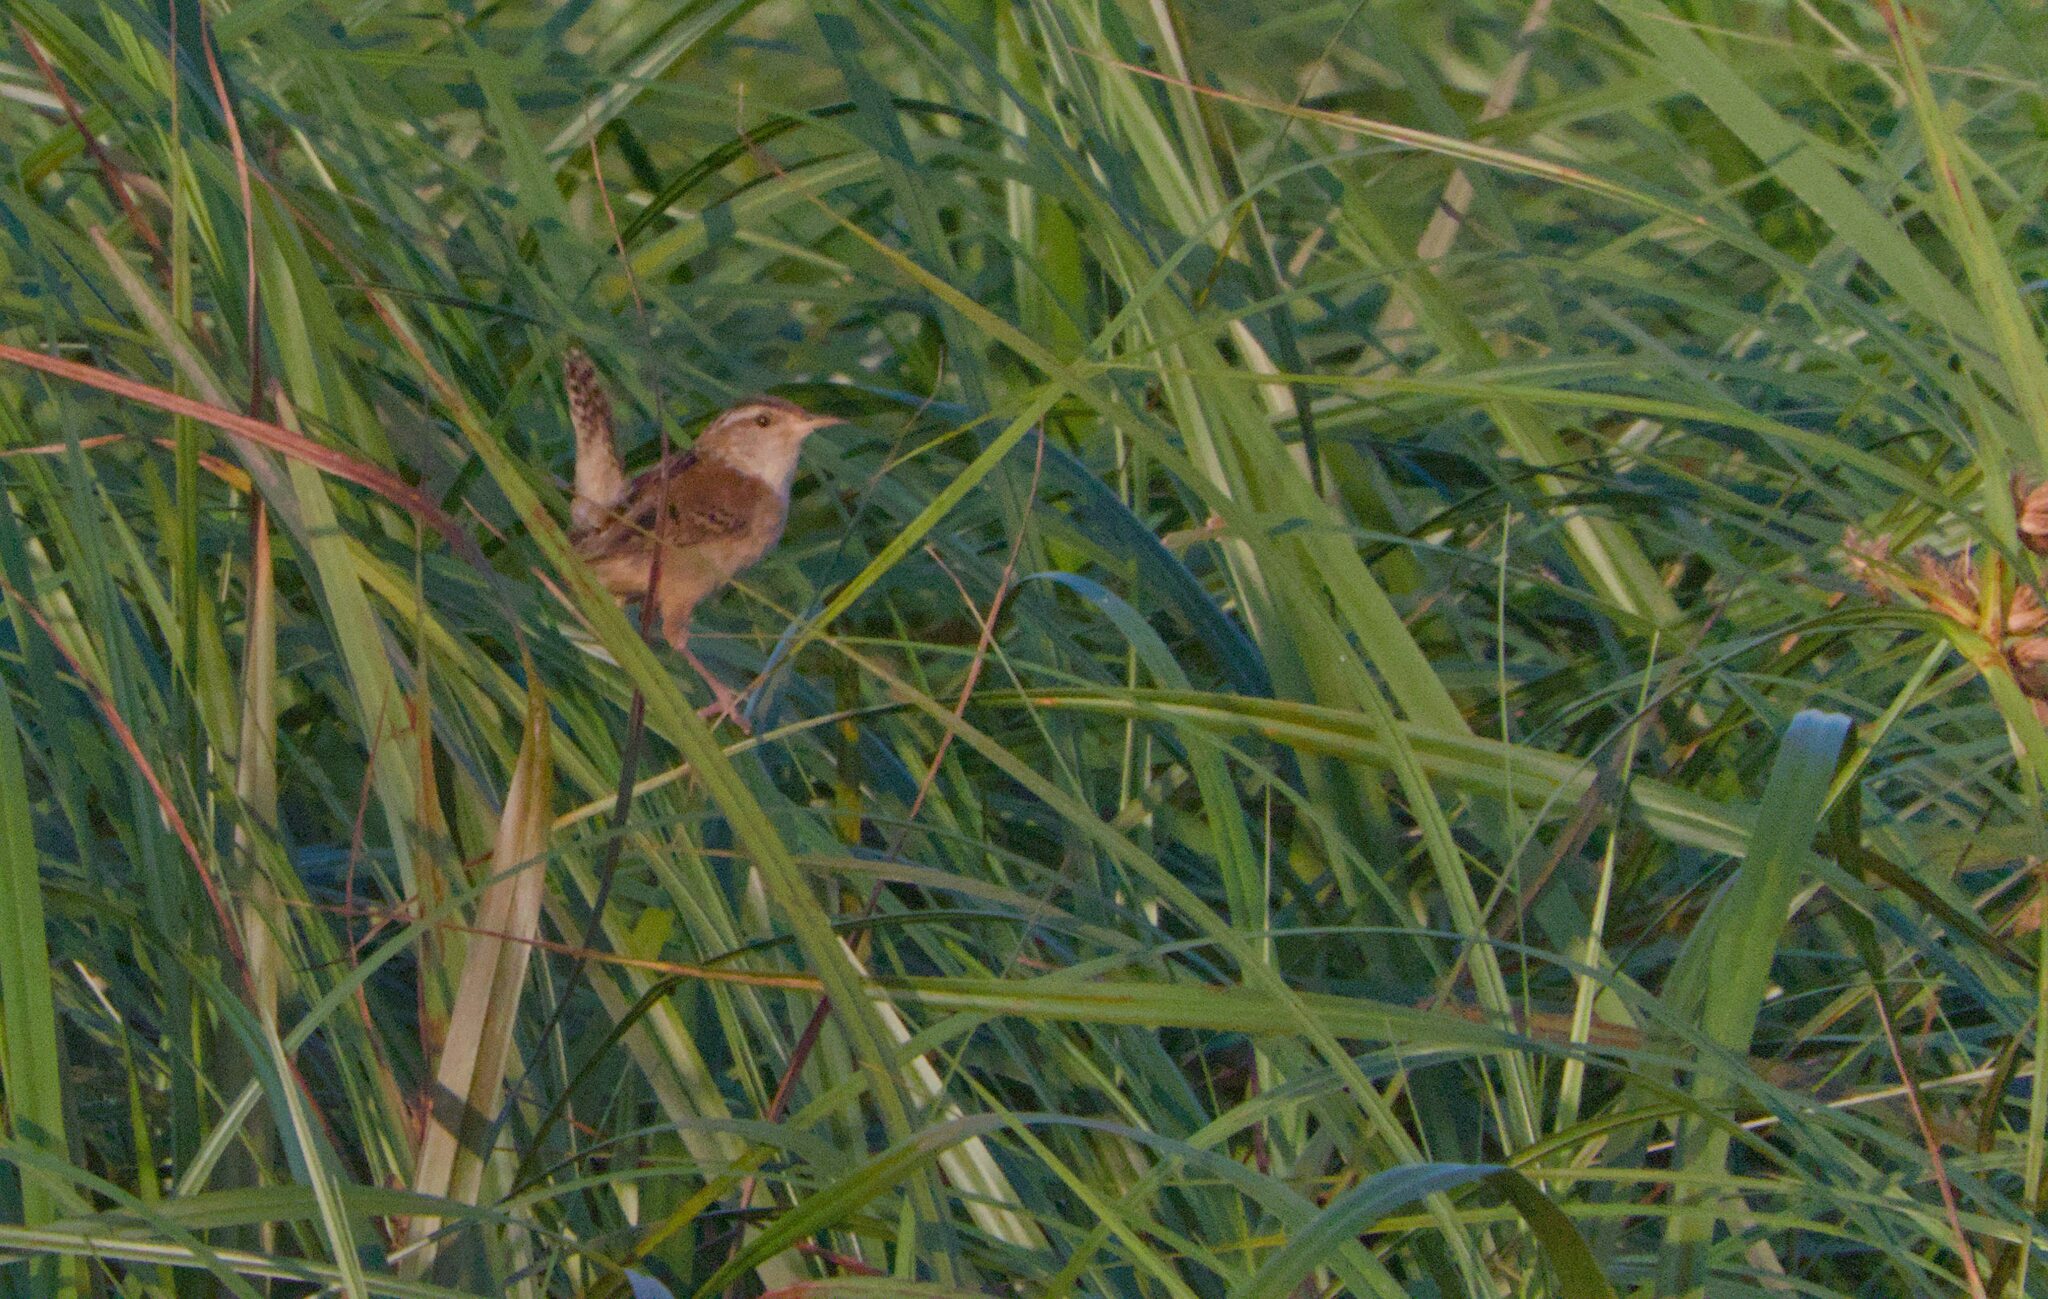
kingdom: Animalia
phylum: Chordata
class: Aves
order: Passeriformes
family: Troglodytidae
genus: Cistothorus
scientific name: Cistothorus palustris
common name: Marsh wren
